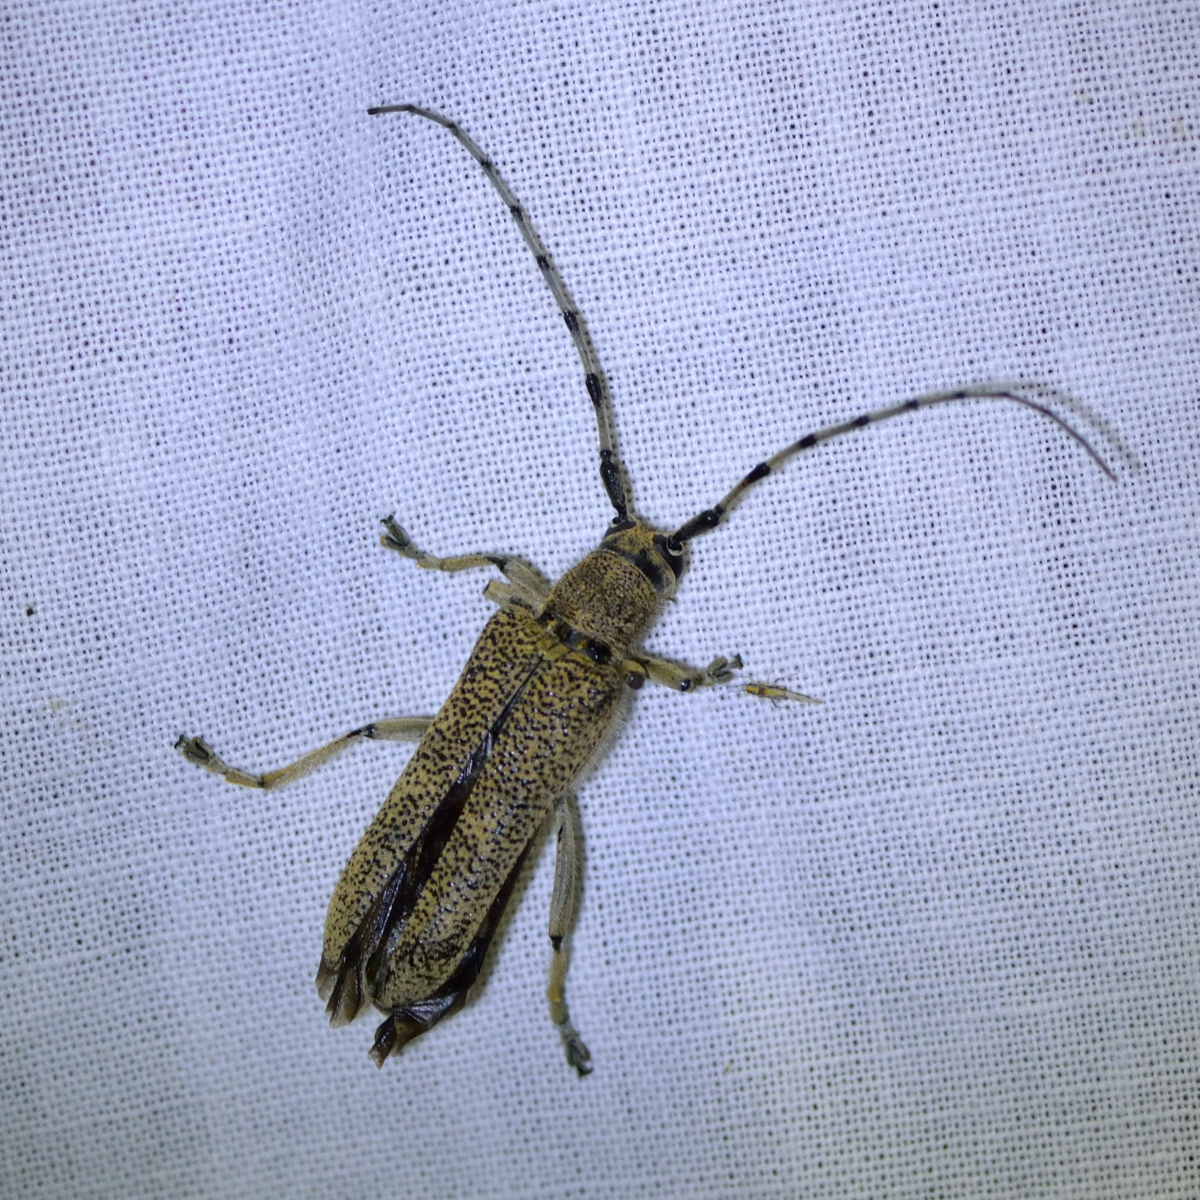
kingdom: Animalia
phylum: Arthropoda
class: Insecta
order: Coleoptera
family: Cerambycidae
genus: Saperda
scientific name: Saperda carcharias
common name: Poplar borer
